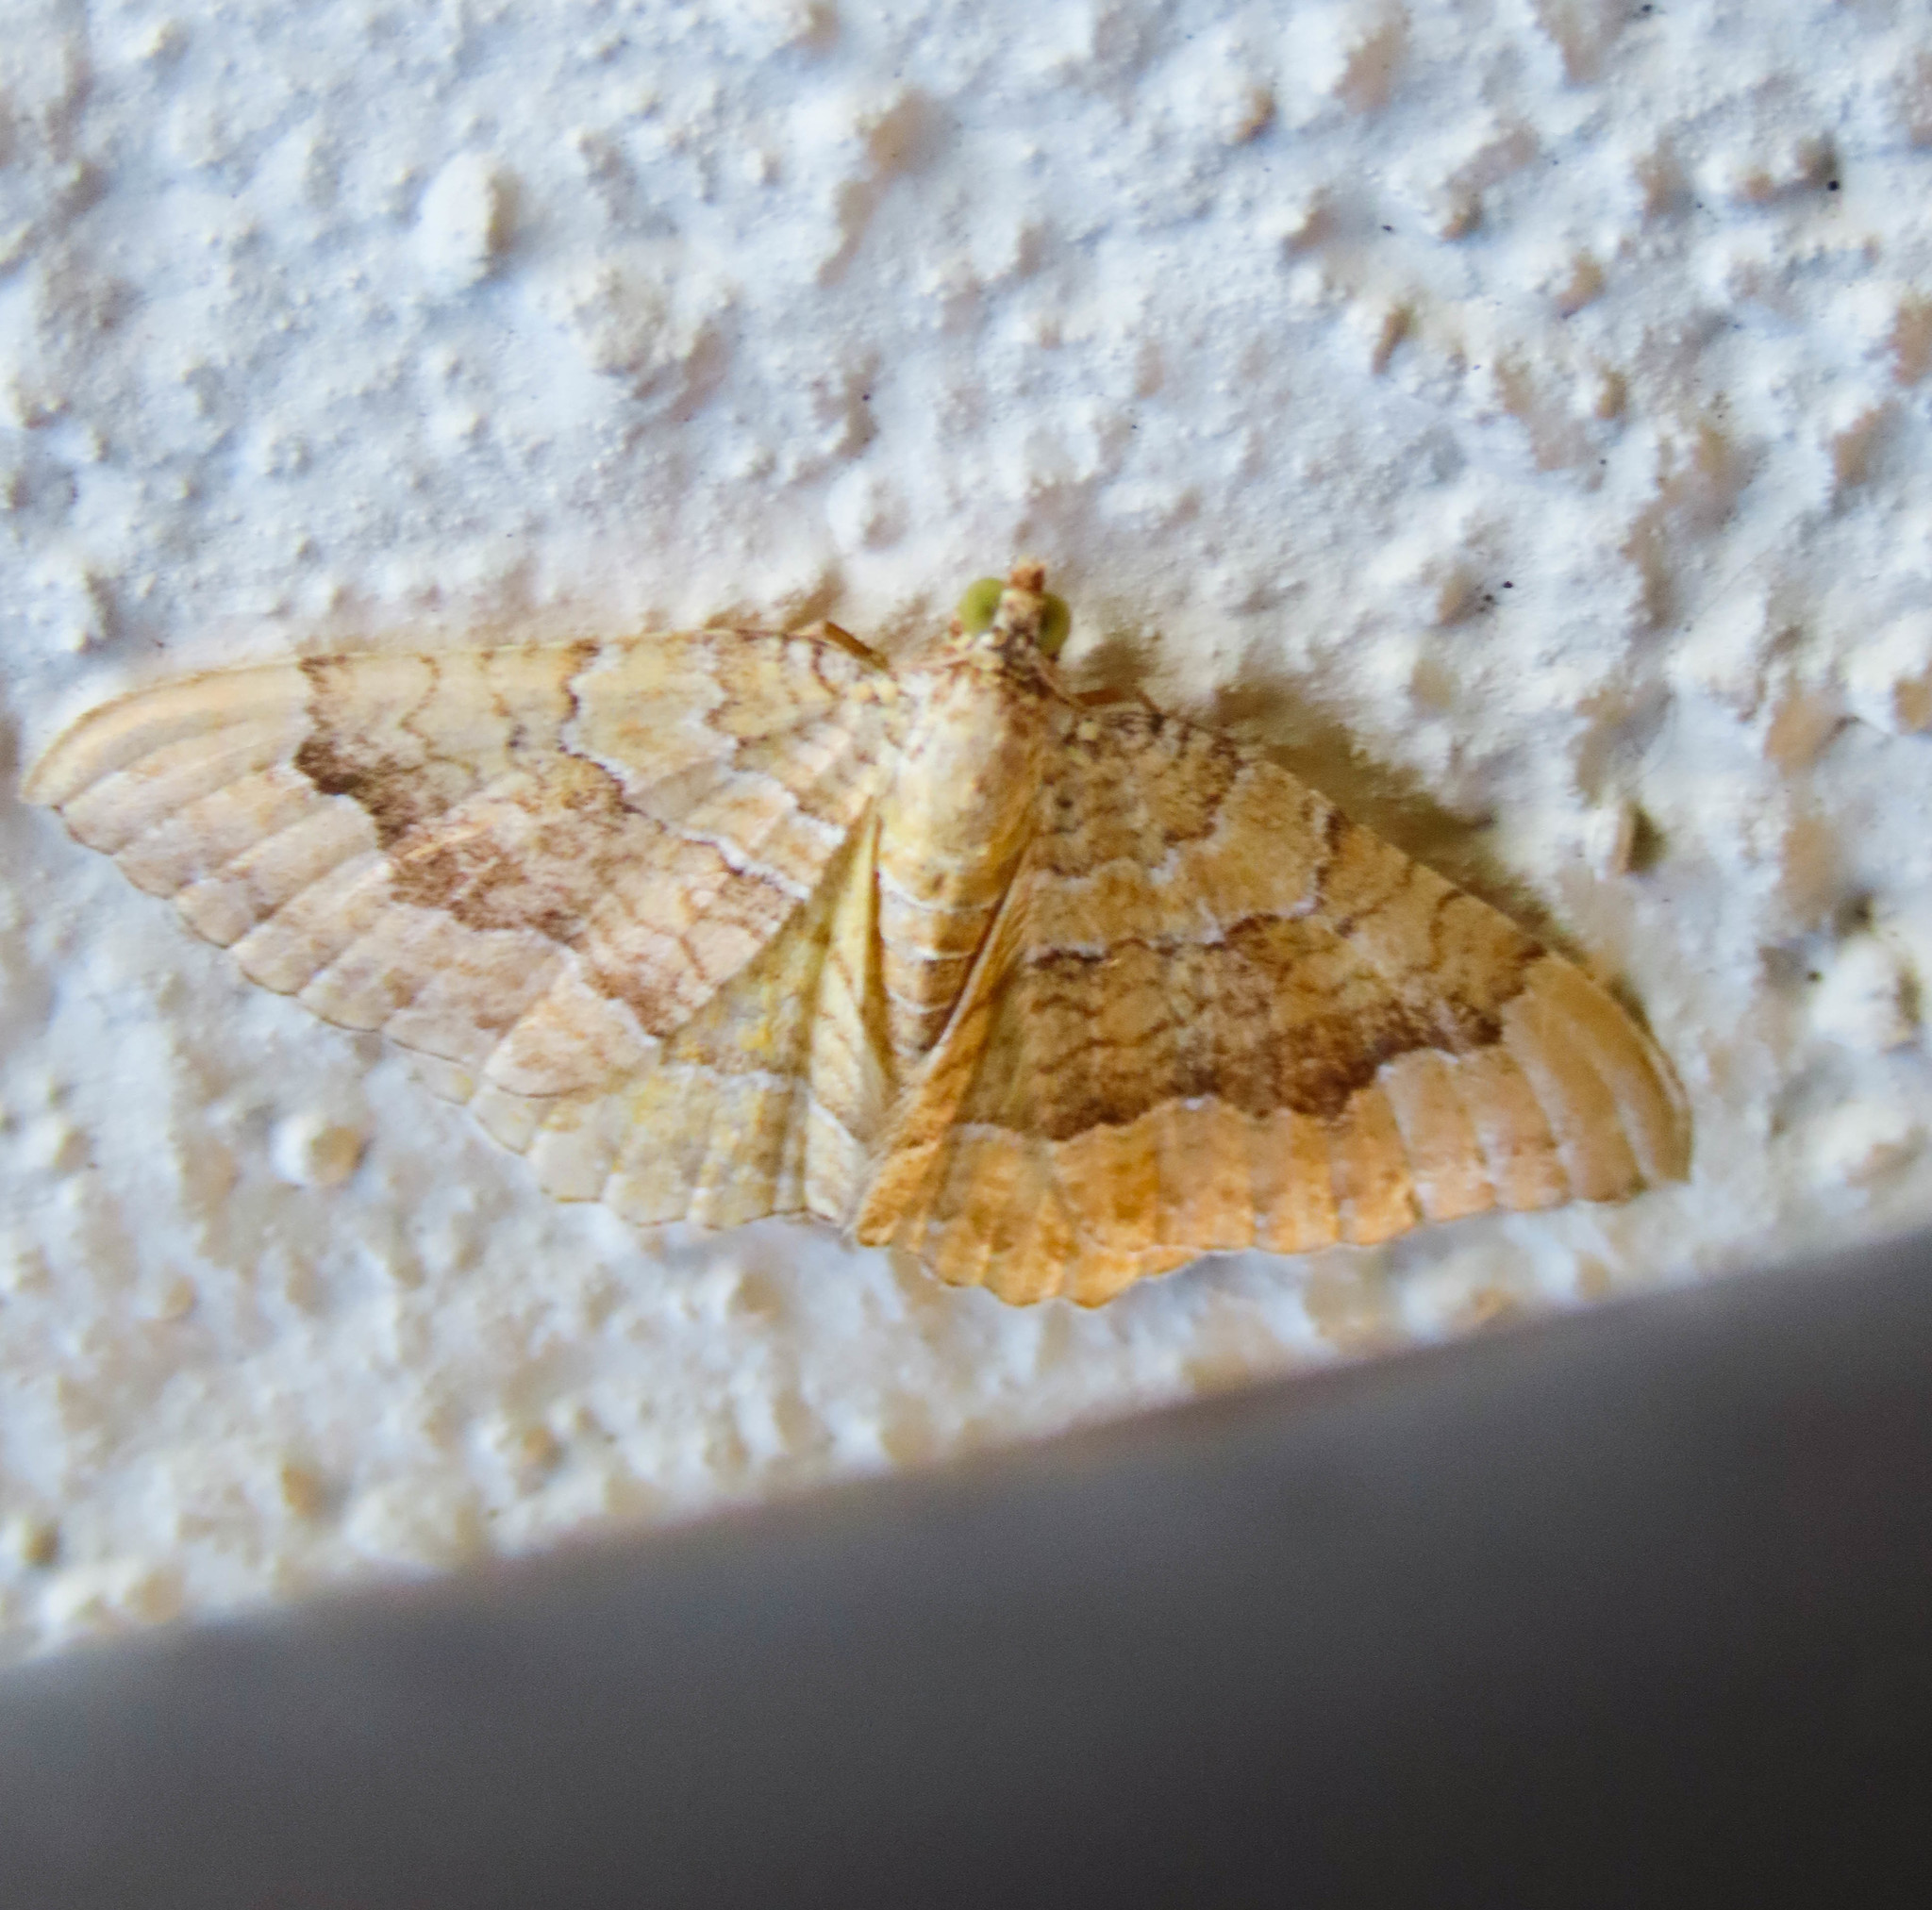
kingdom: Animalia
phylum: Arthropoda
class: Insecta
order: Lepidoptera
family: Geometridae
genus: Camptogramma
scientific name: Camptogramma bilineata
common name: Yellow shell
